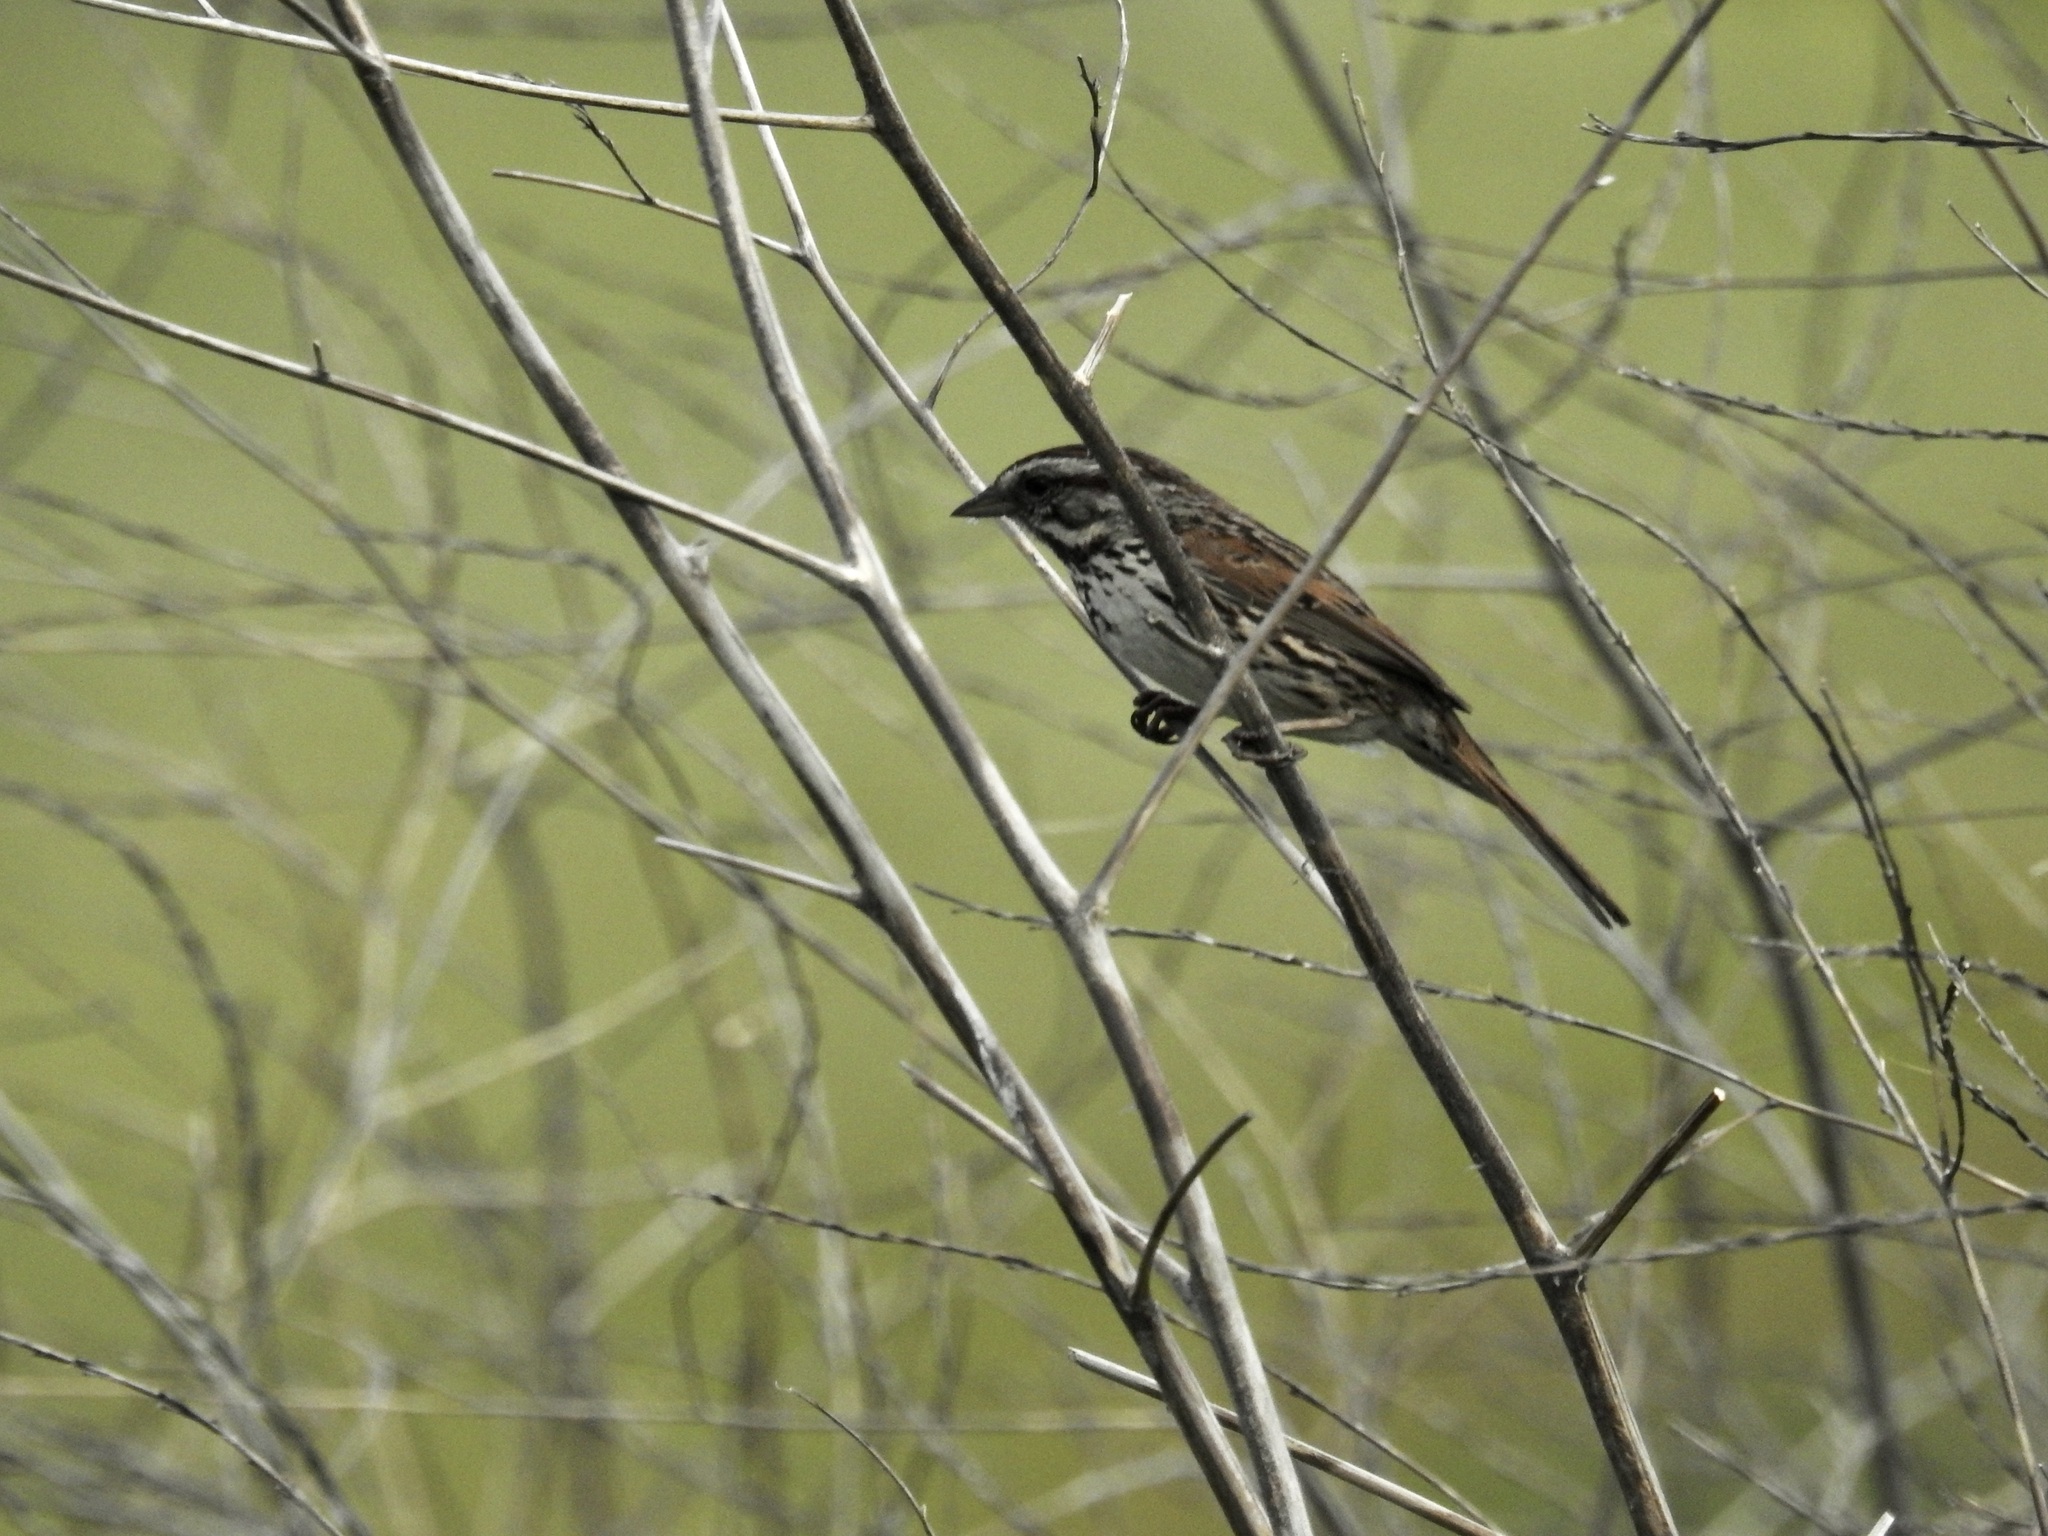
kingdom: Animalia
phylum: Chordata
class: Aves
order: Passeriformes
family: Passerellidae
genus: Melospiza
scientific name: Melospiza melodia
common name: Song sparrow
